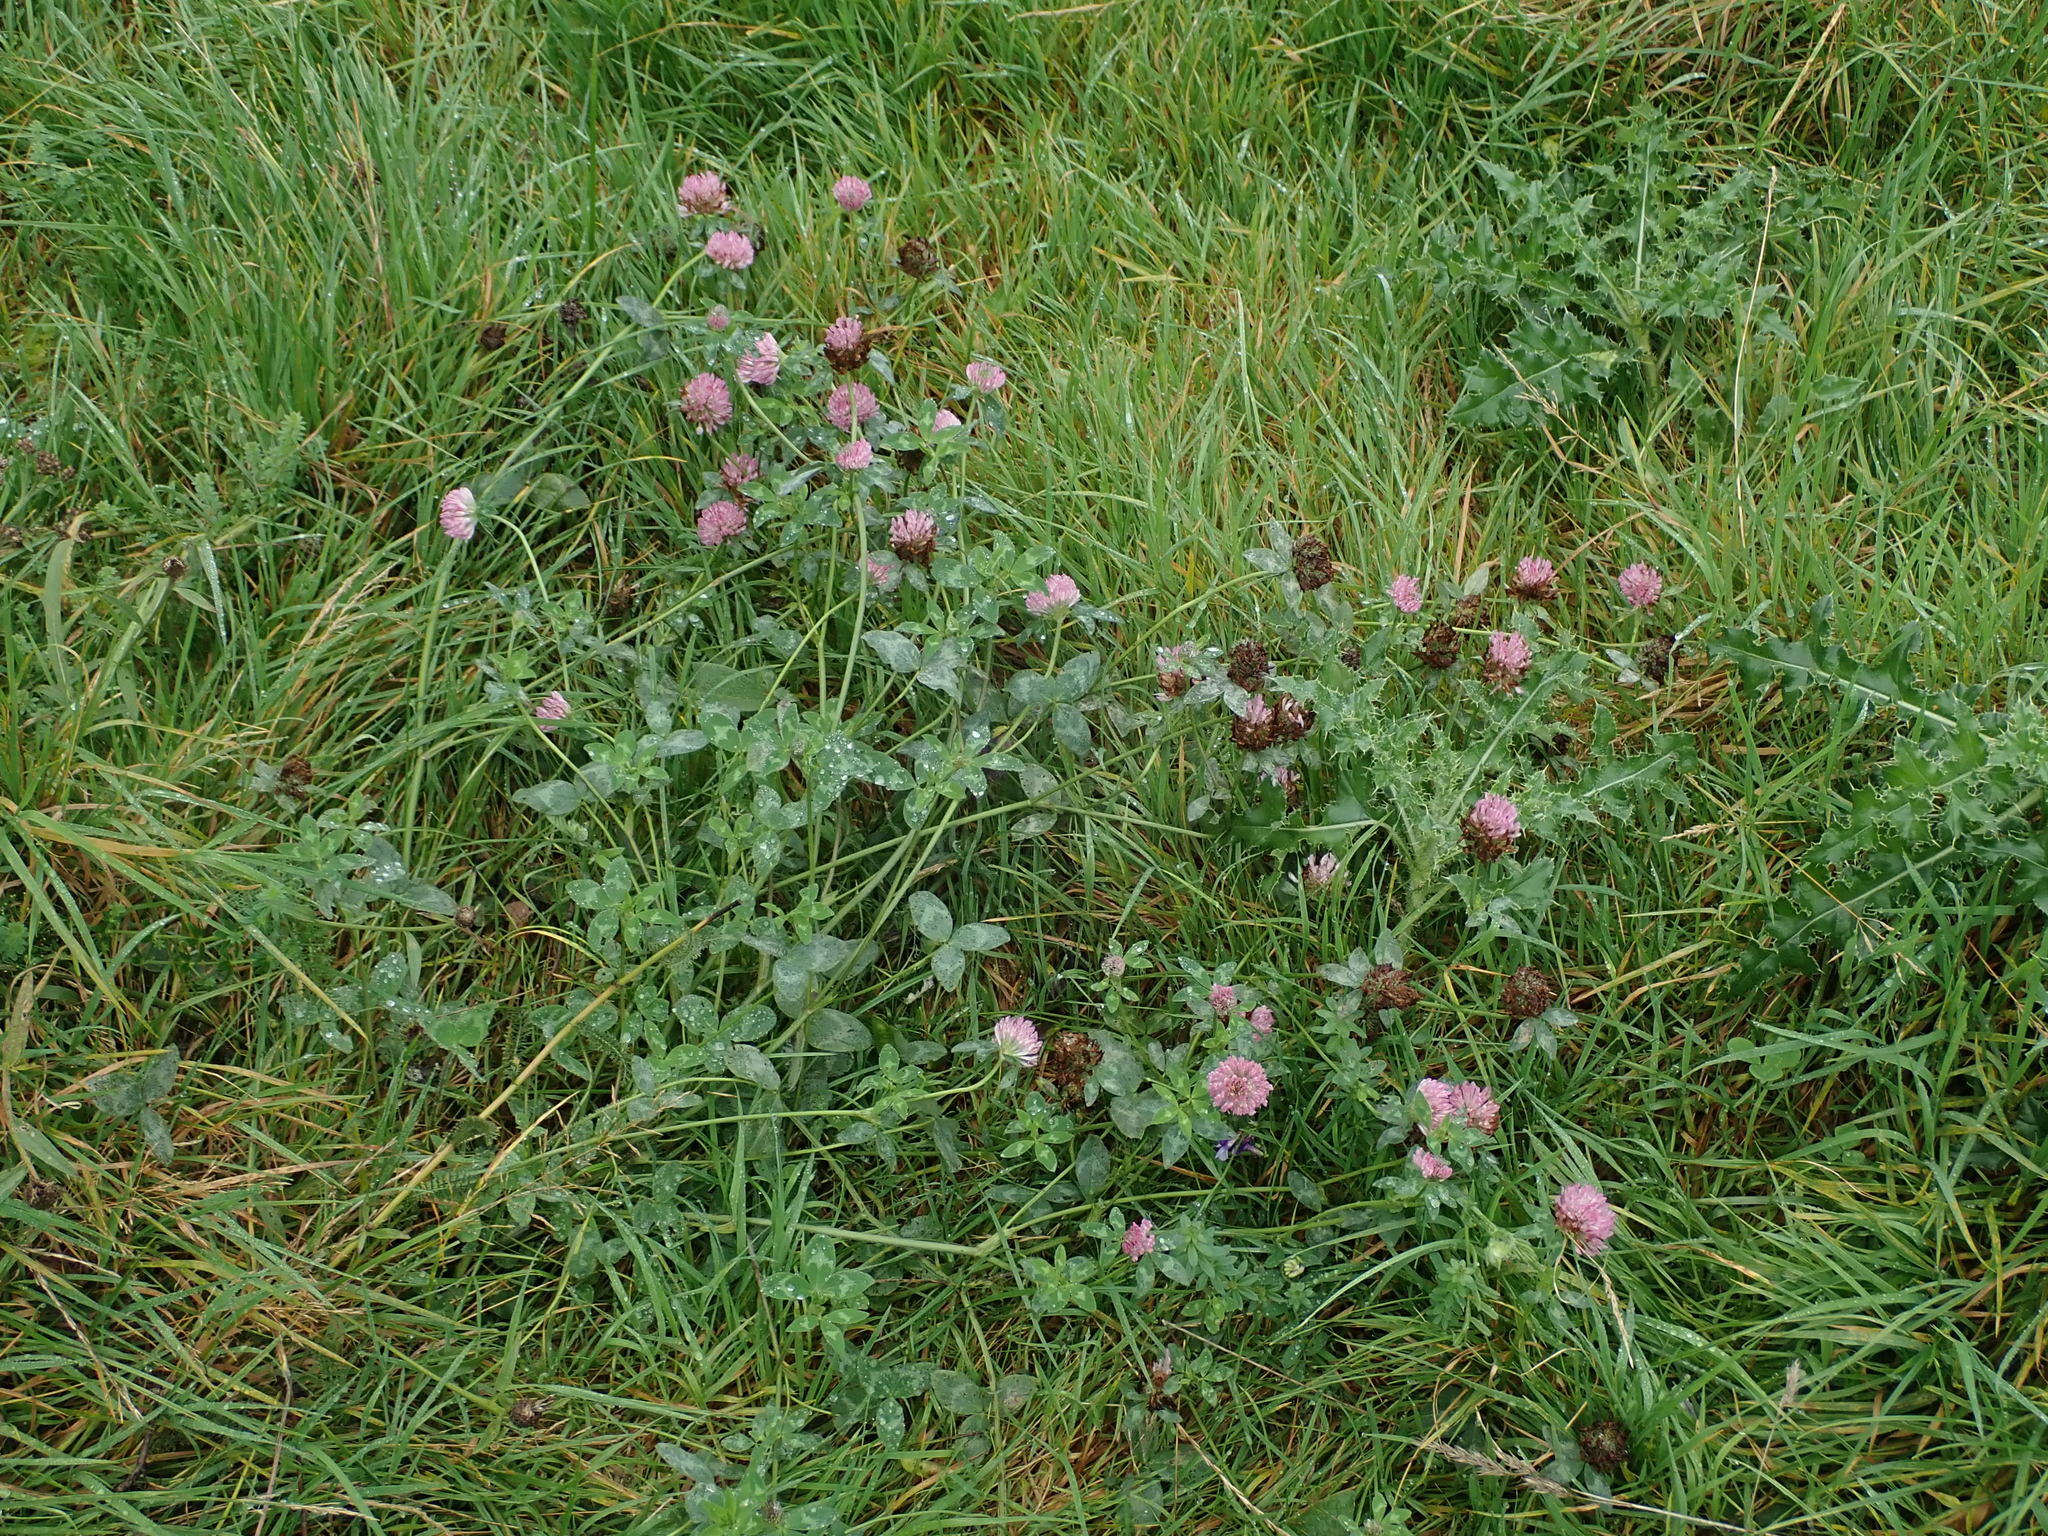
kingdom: Plantae
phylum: Tracheophyta
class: Magnoliopsida
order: Fabales
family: Fabaceae
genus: Trifolium
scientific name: Trifolium pratense
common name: Red clover
